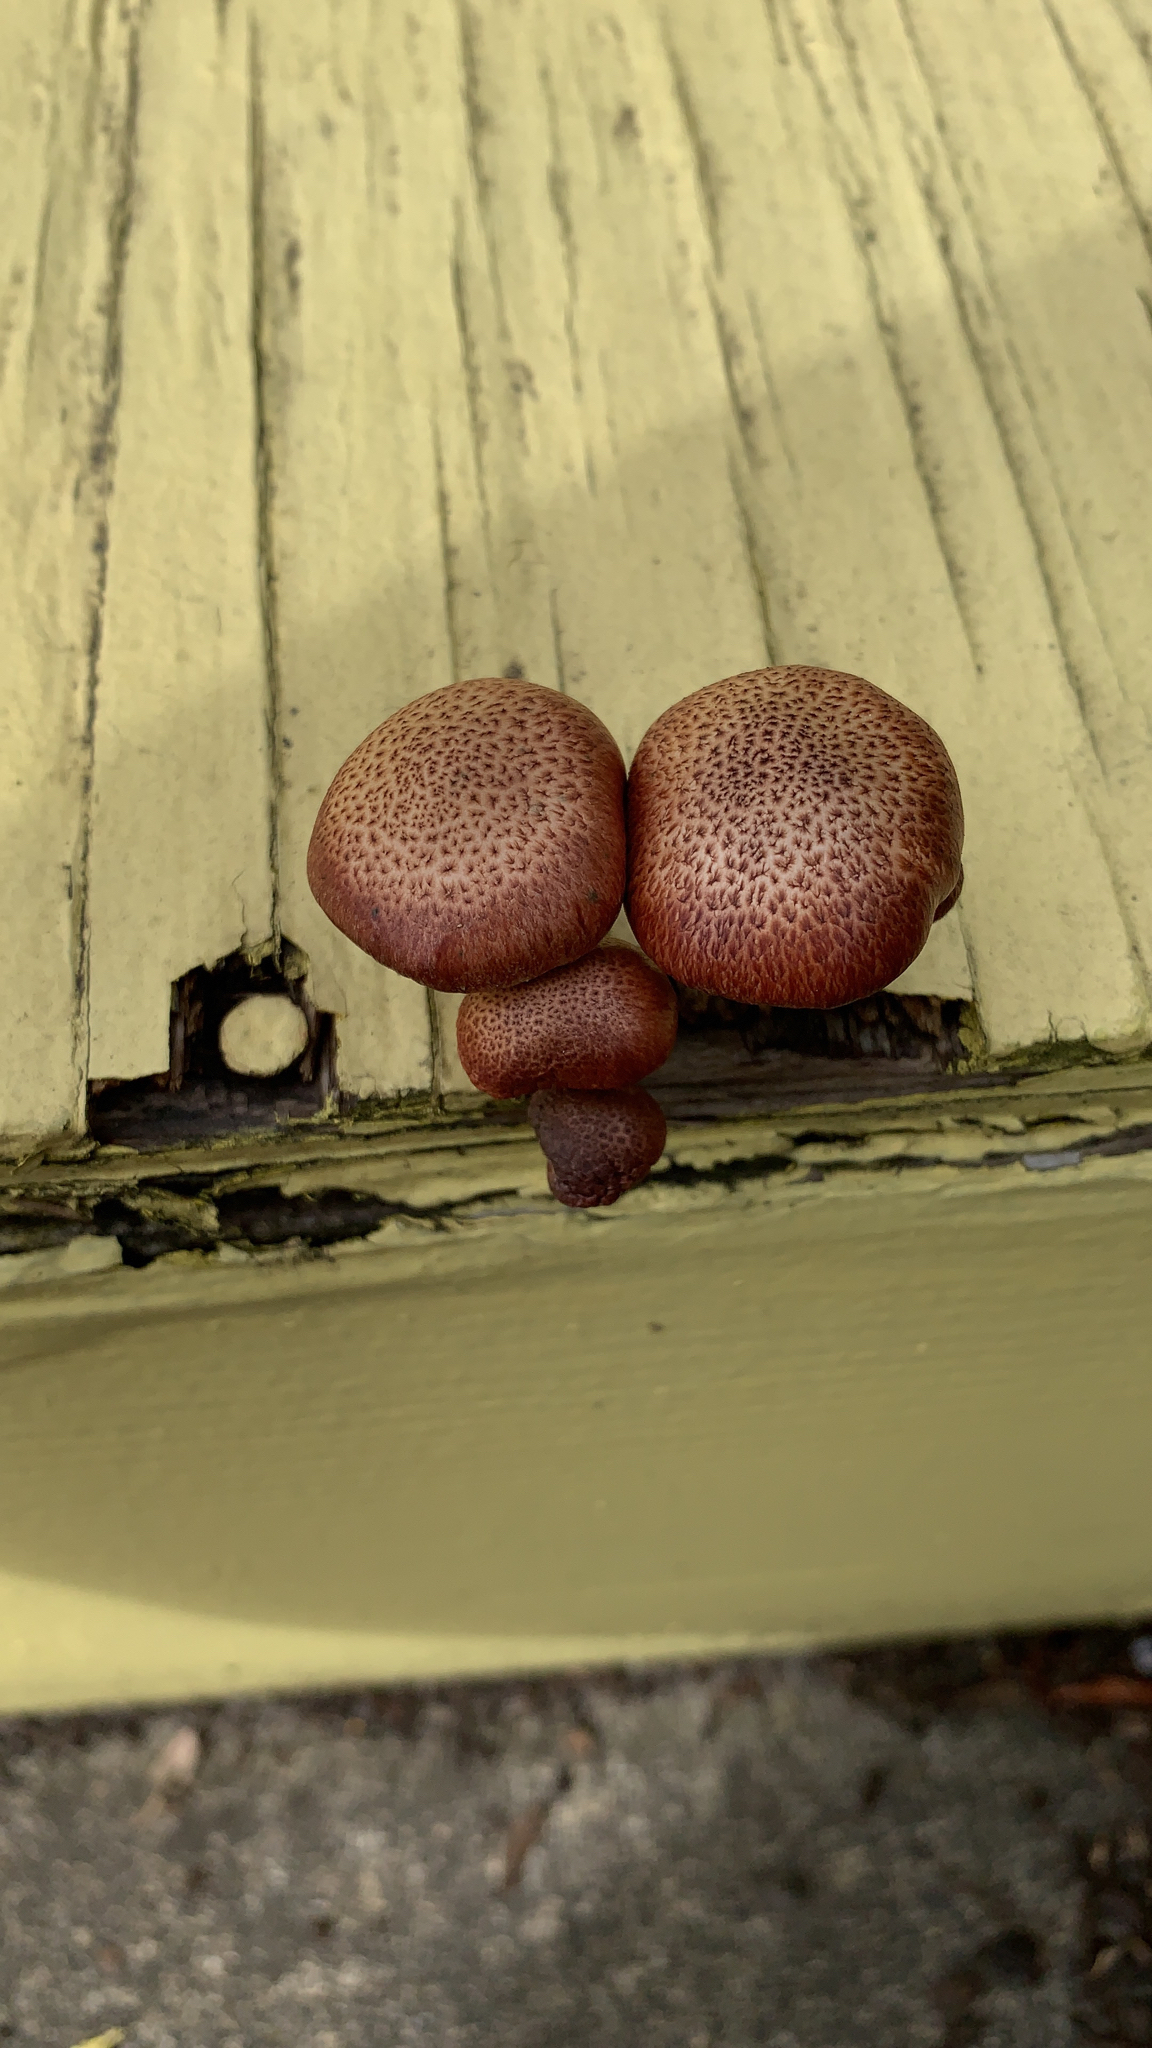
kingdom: Fungi
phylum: Basidiomycota
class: Agaricomycetes
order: Agaricales
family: Hymenogastraceae
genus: Gymnopilus
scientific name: Gymnopilus luteofolius
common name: Yellow-gilled gymnopilus
